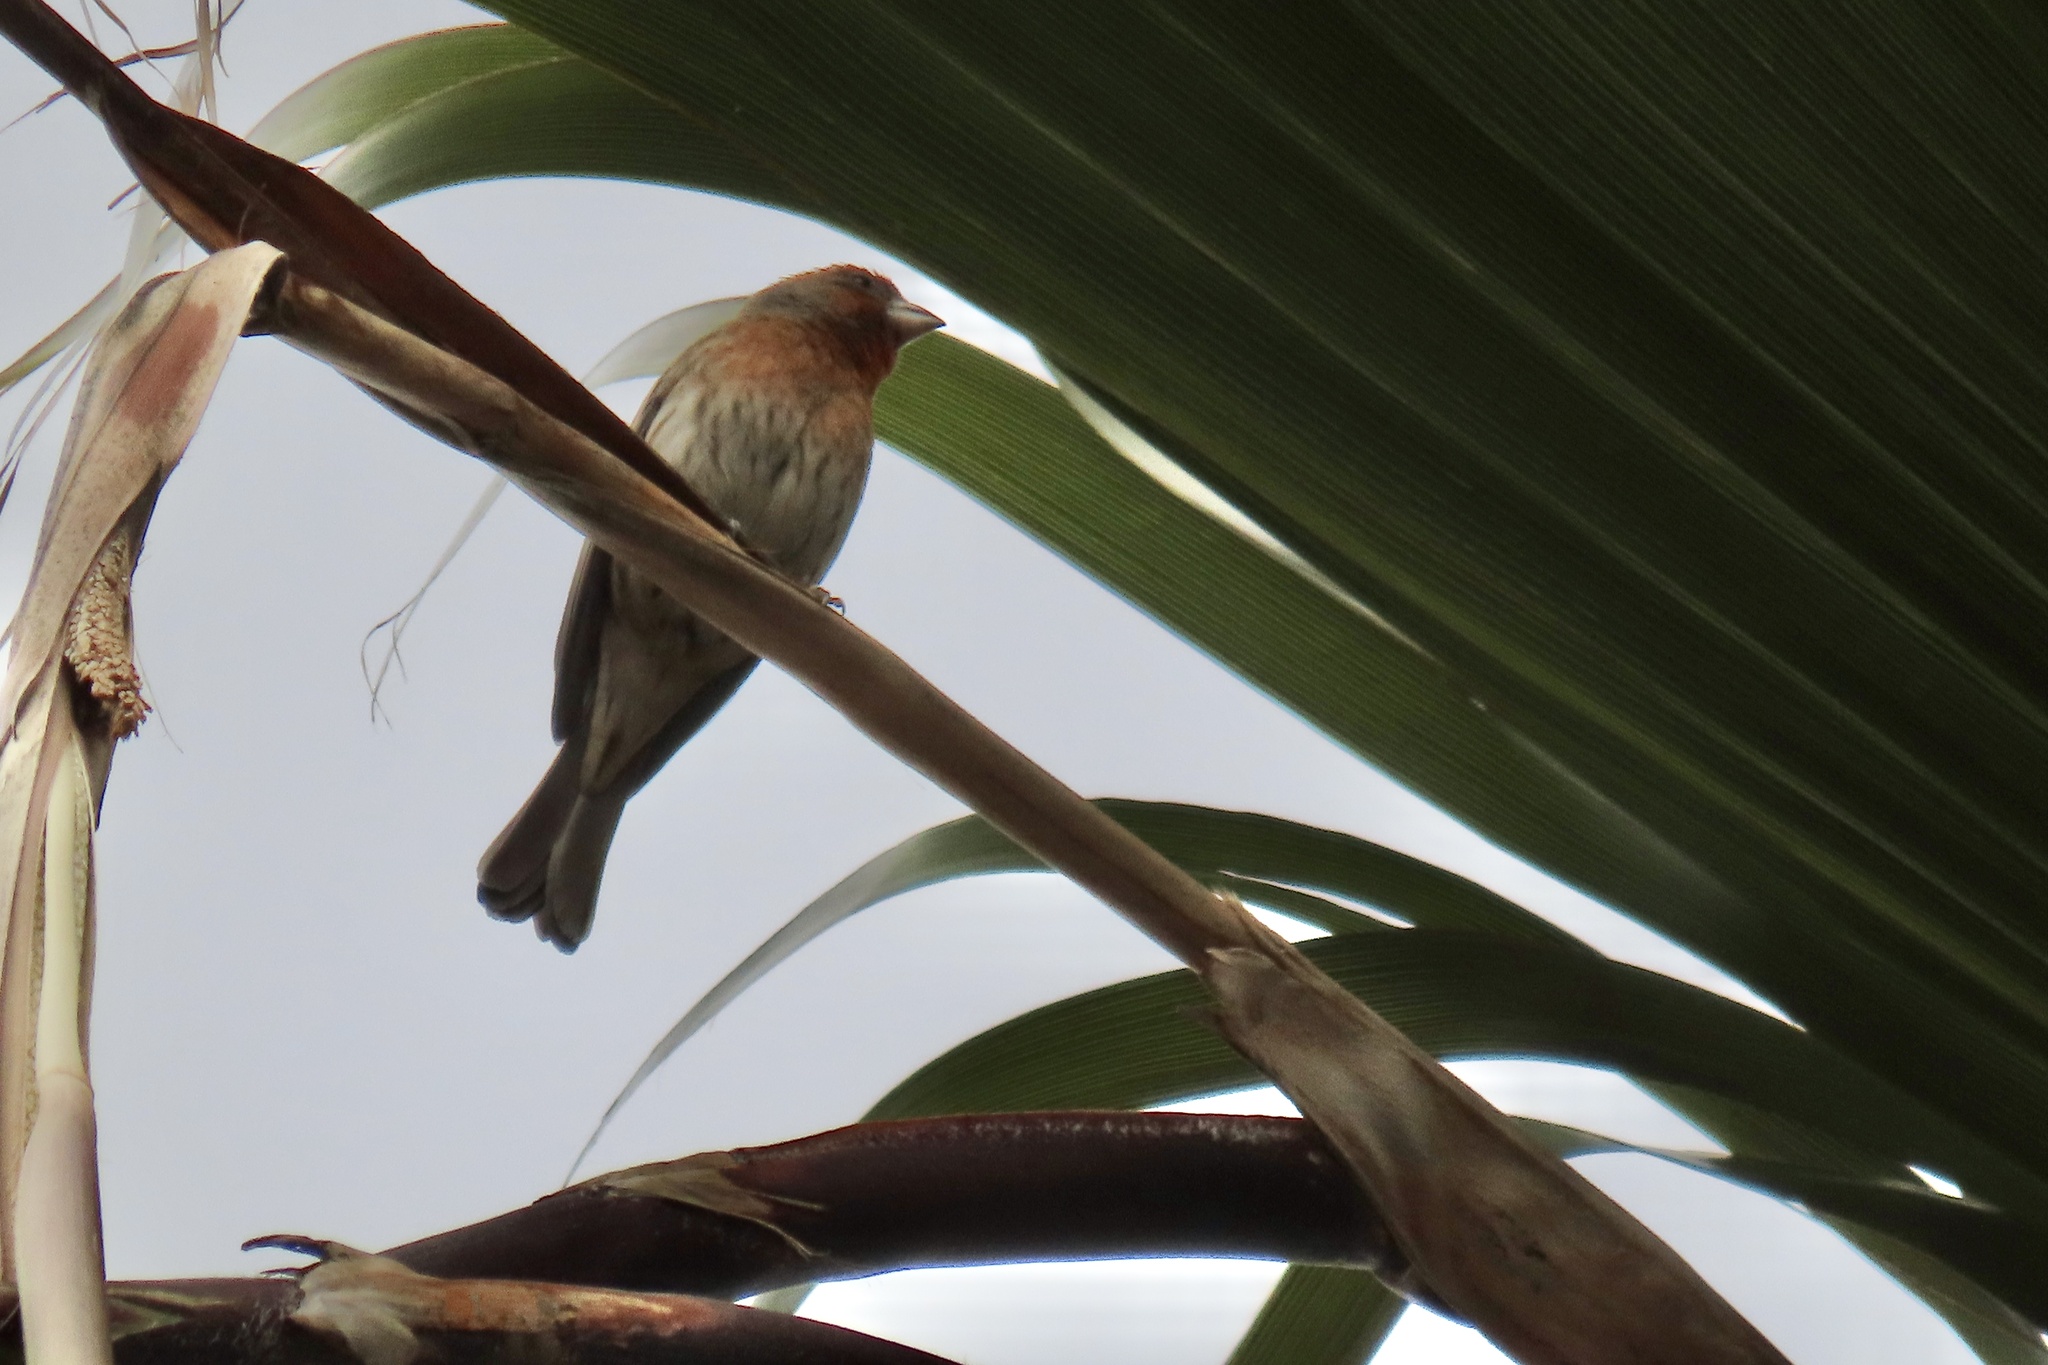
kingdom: Animalia
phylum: Chordata
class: Aves
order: Passeriformes
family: Fringillidae
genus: Haemorhous
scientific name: Haemorhous mexicanus
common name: House finch
